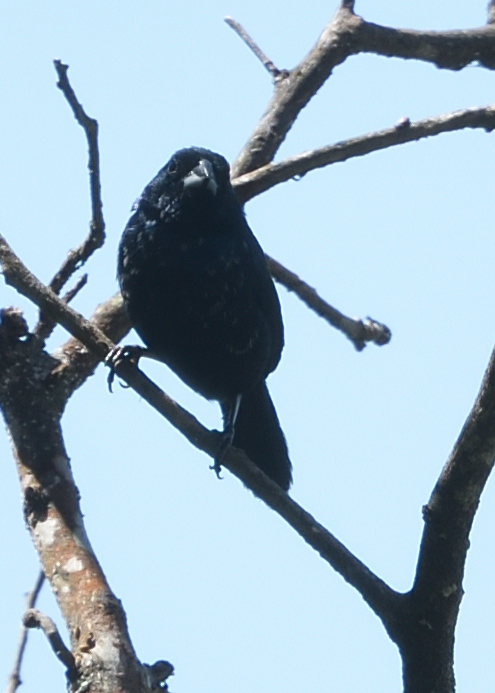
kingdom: Animalia
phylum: Chordata
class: Aves
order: Passeriformes
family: Thraupidae
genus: Volatinia
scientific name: Volatinia jacarina
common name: Blue-black grassquit
